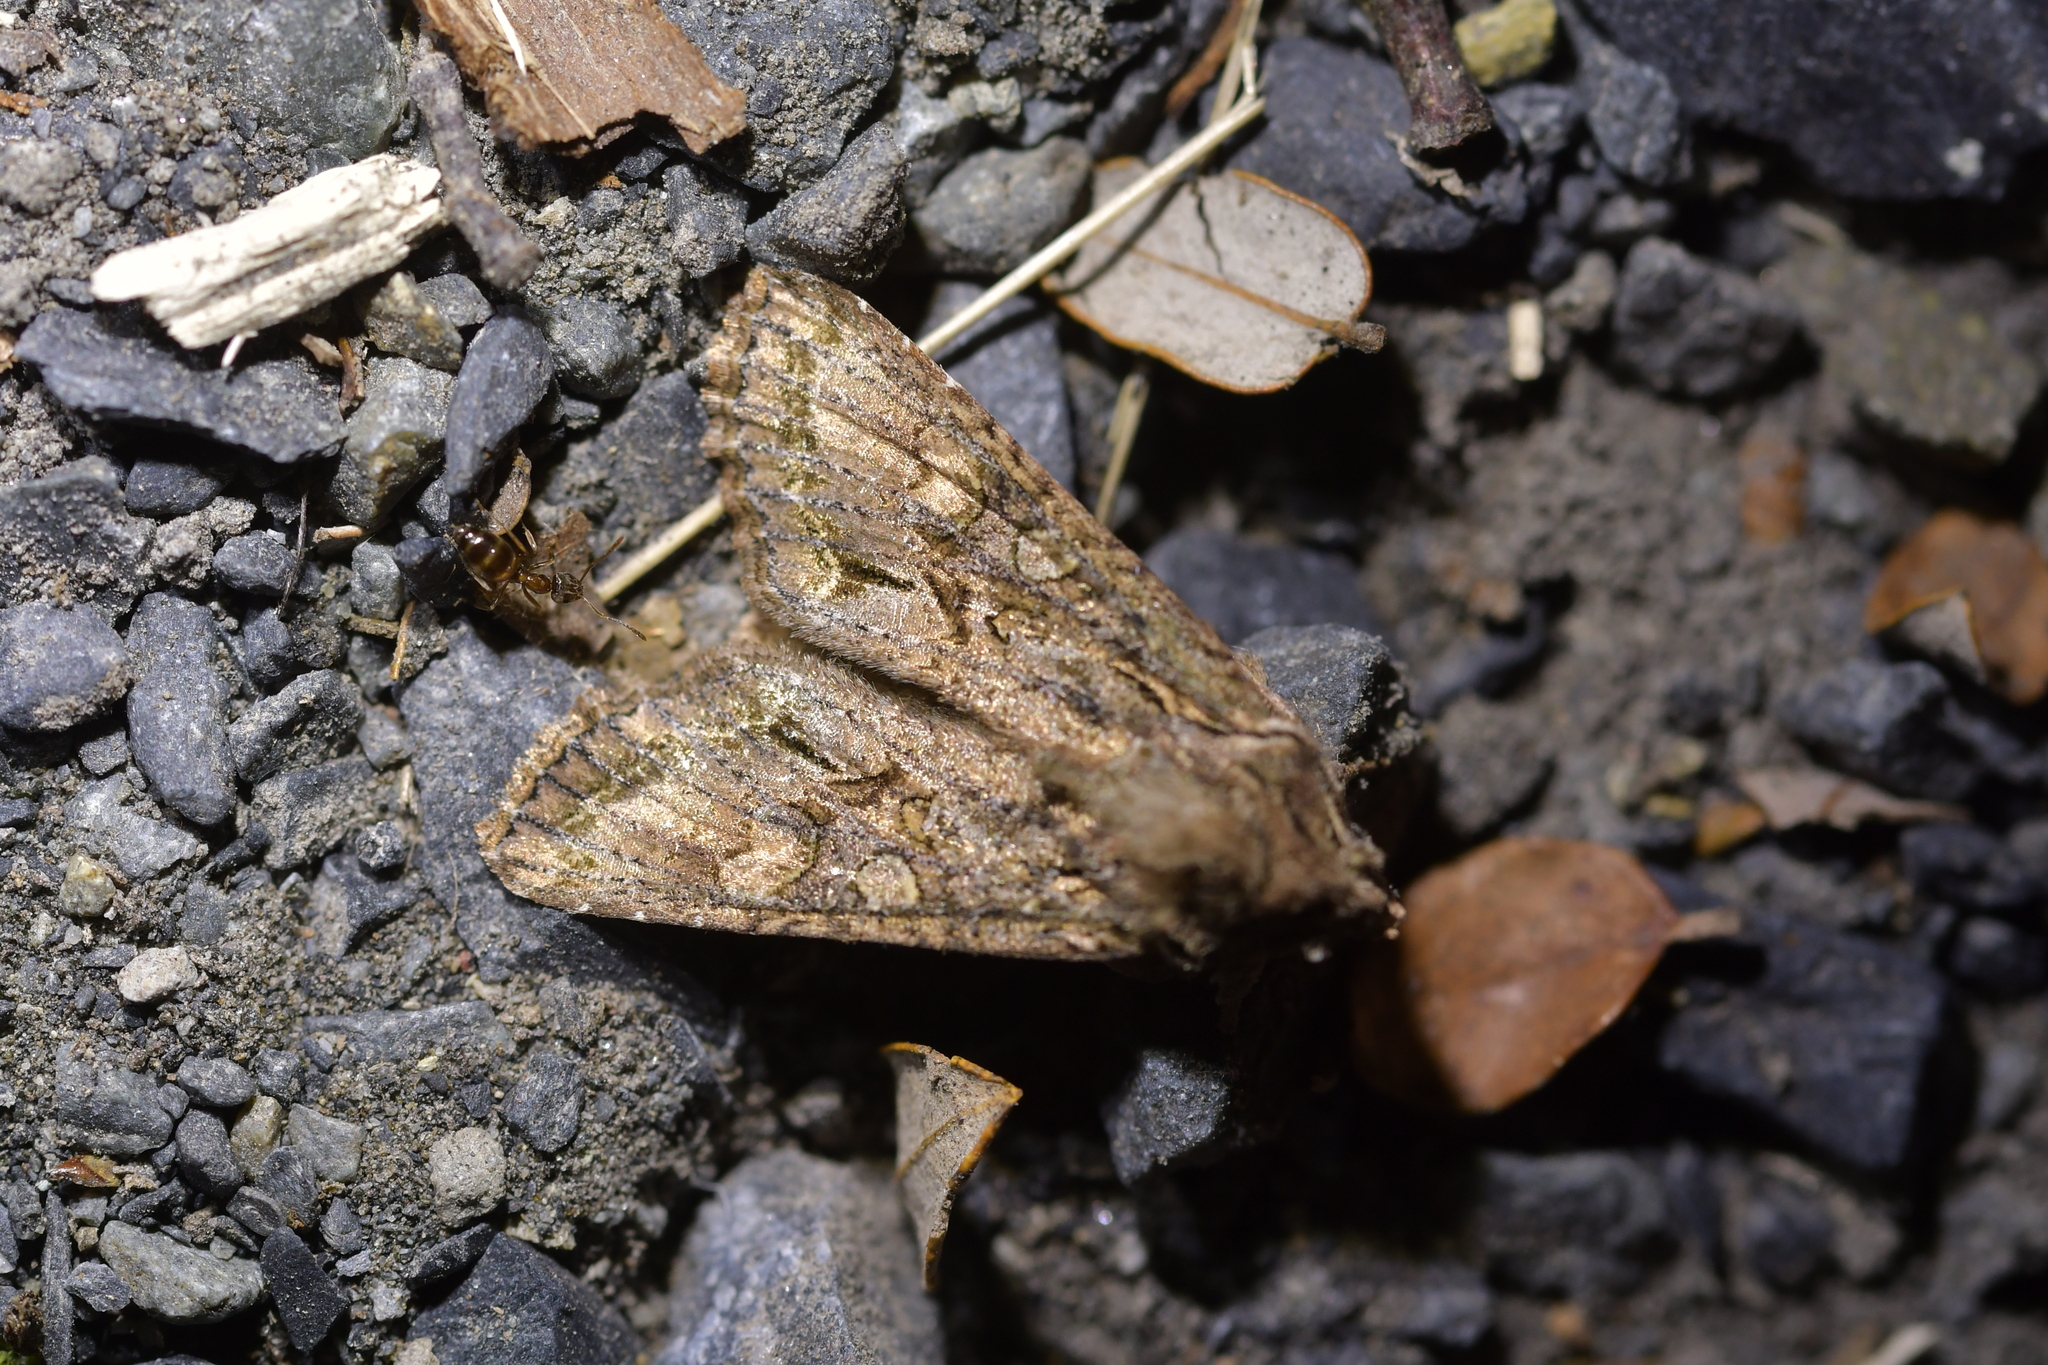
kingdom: Animalia
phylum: Arthropoda
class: Insecta
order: Lepidoptera
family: Noctuidae
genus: Ichneutica
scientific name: Ichneutica mutans
